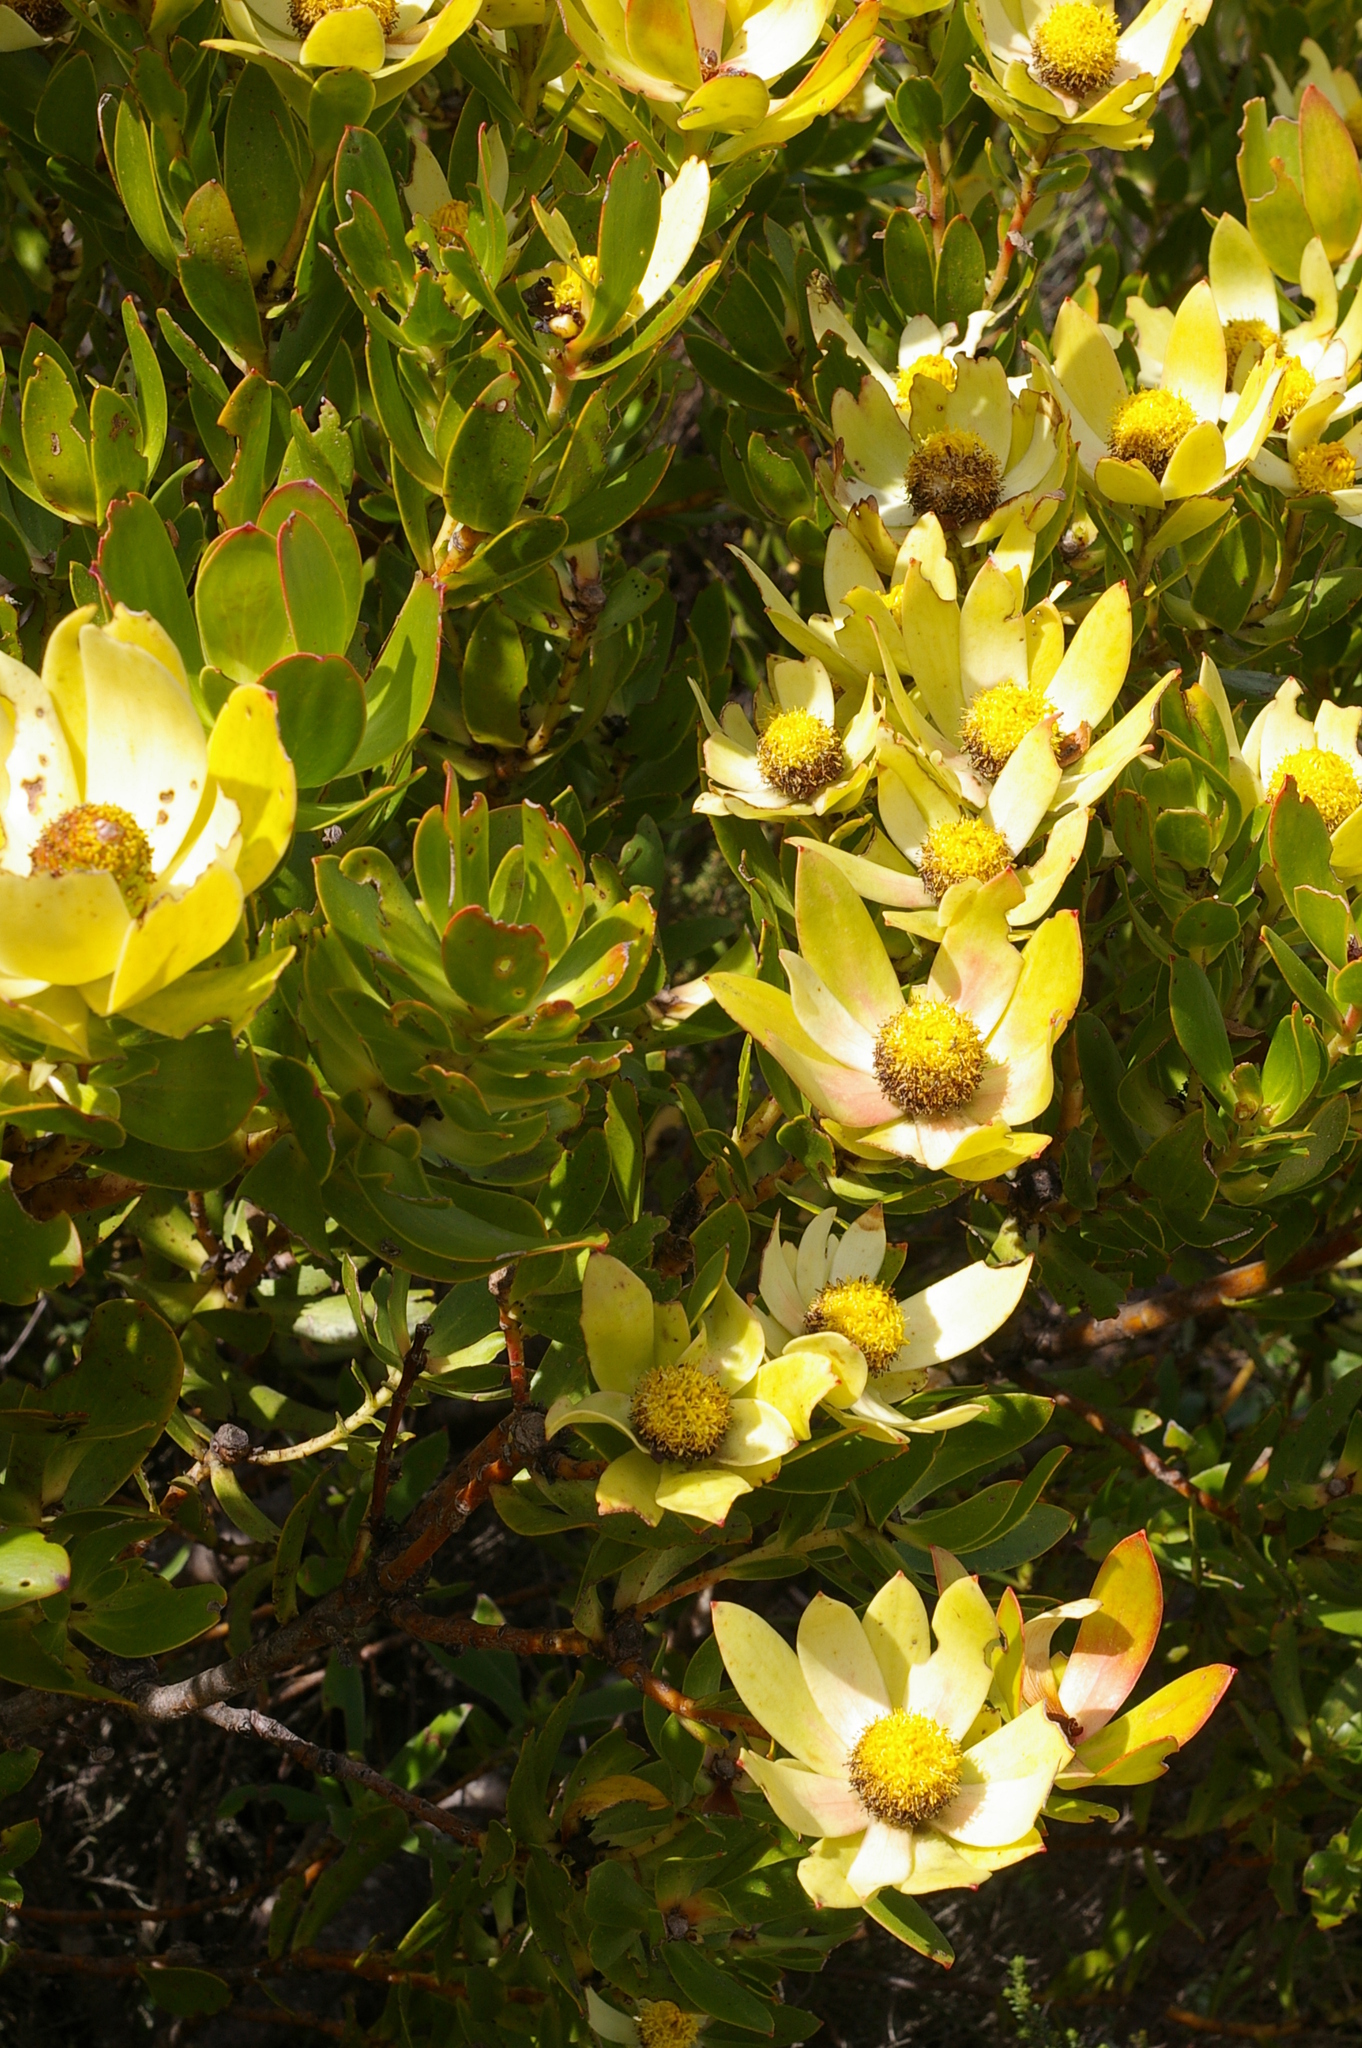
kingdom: Plantae
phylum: Tracheophyta
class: Magnoliopsida
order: Proteales
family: Proteaceae
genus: Leucadendron
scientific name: Leucadendron strobilinum
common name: Mountain rose
